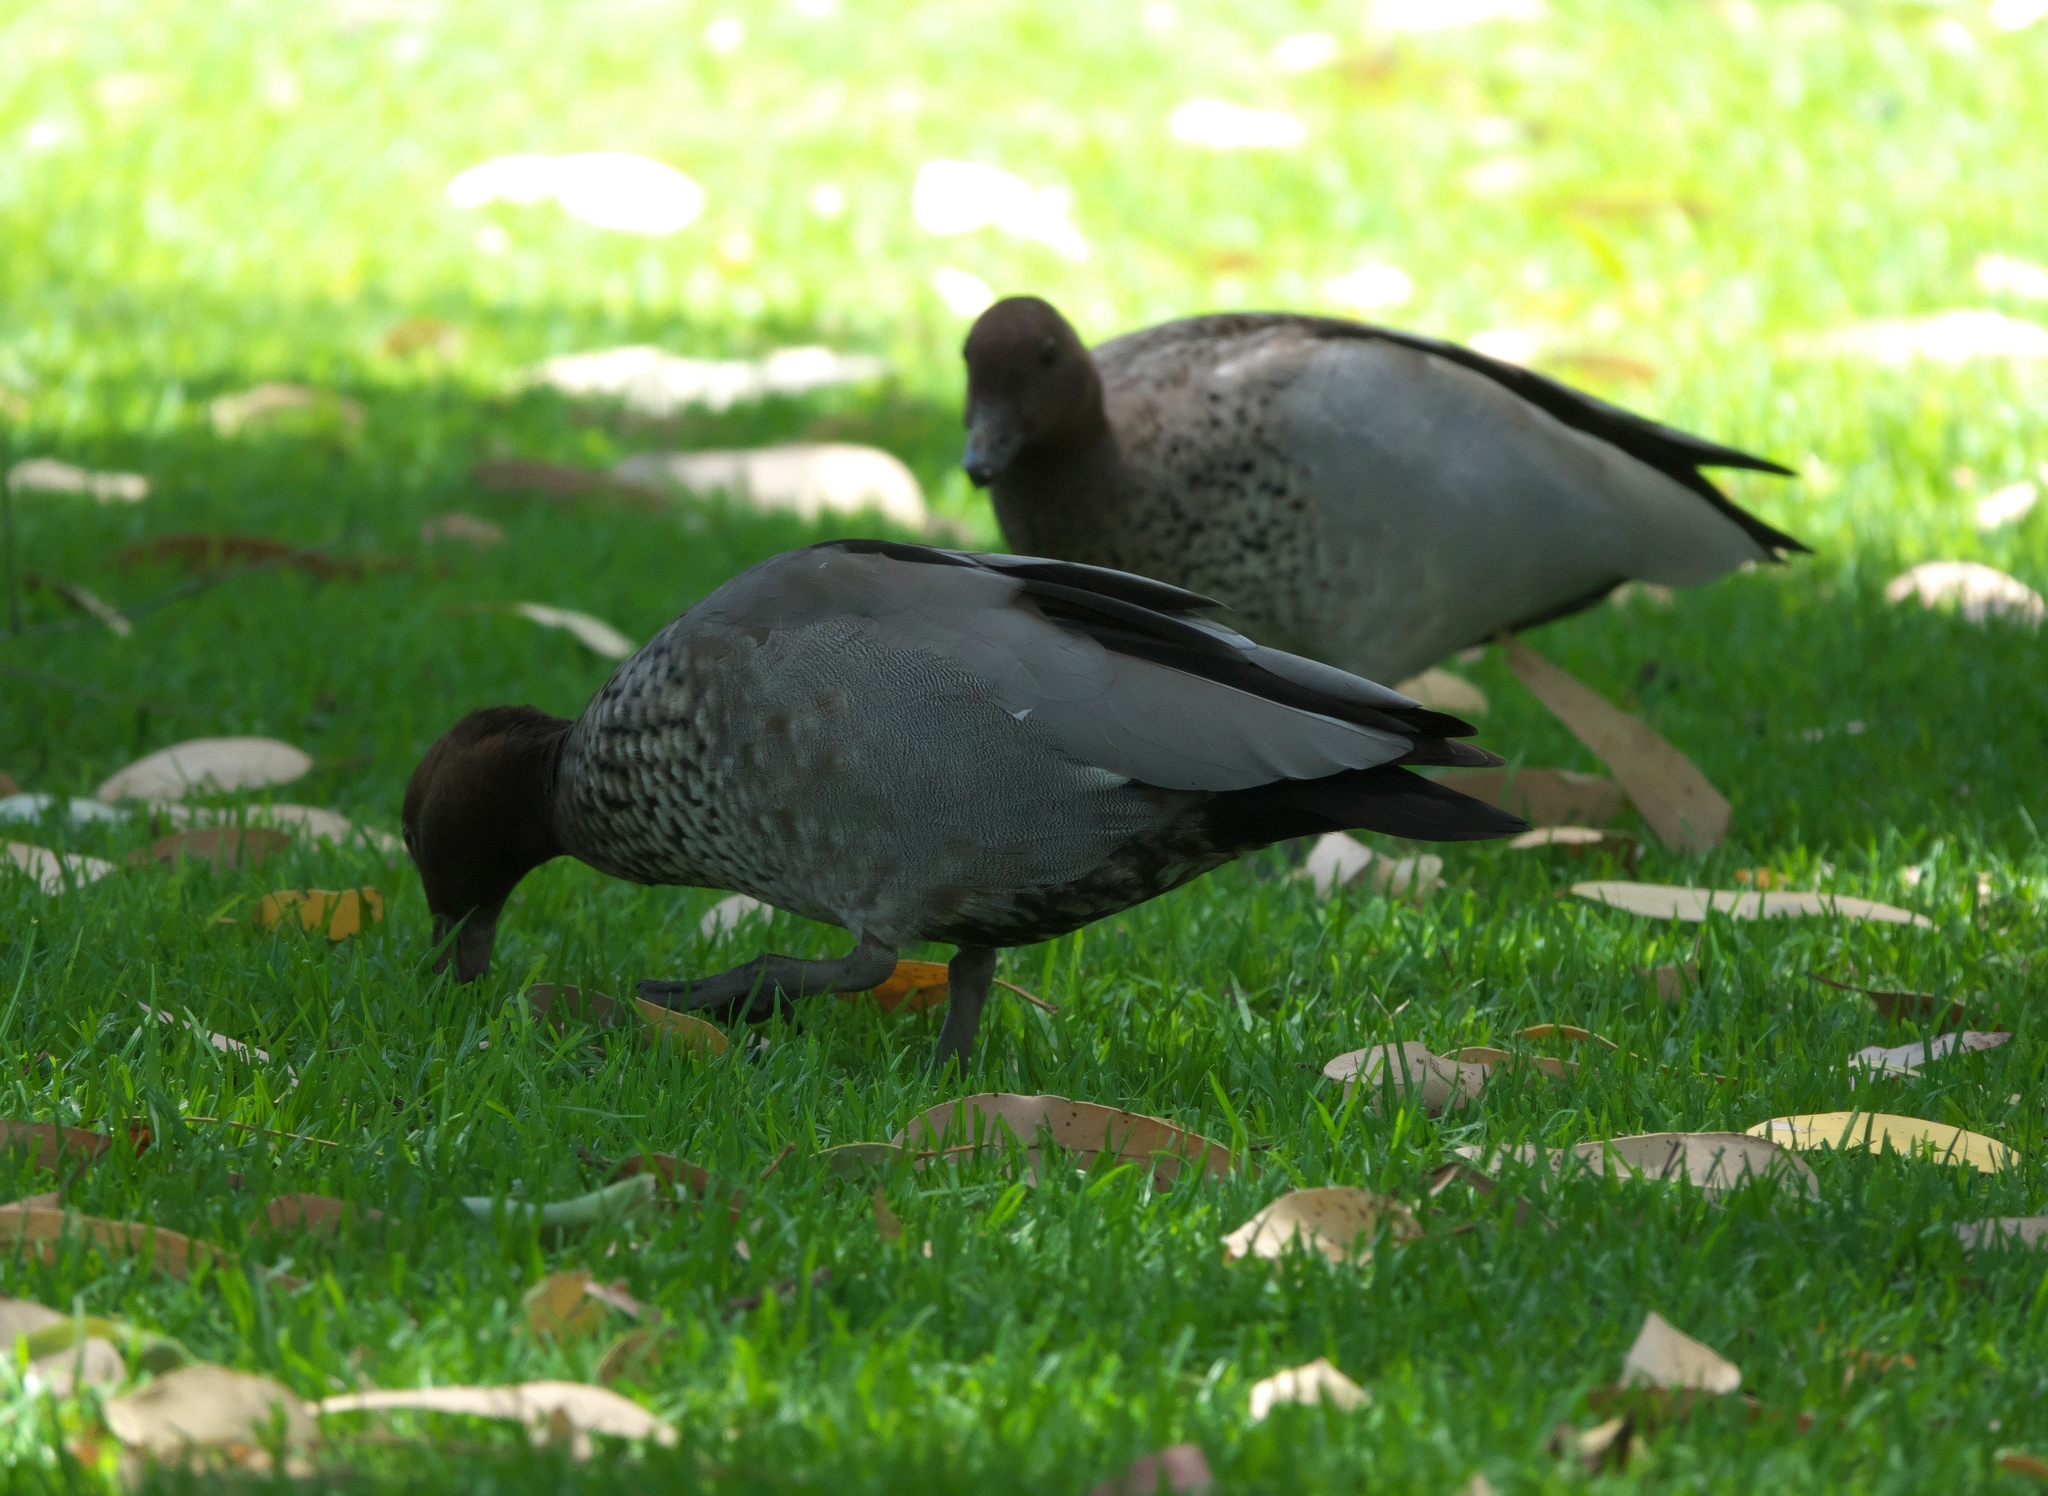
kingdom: Animalia
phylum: Chordata
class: Aves
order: Anseriformes
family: Anatidae
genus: Chenonetta
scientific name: Chenonetta jubata
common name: Maned duck
